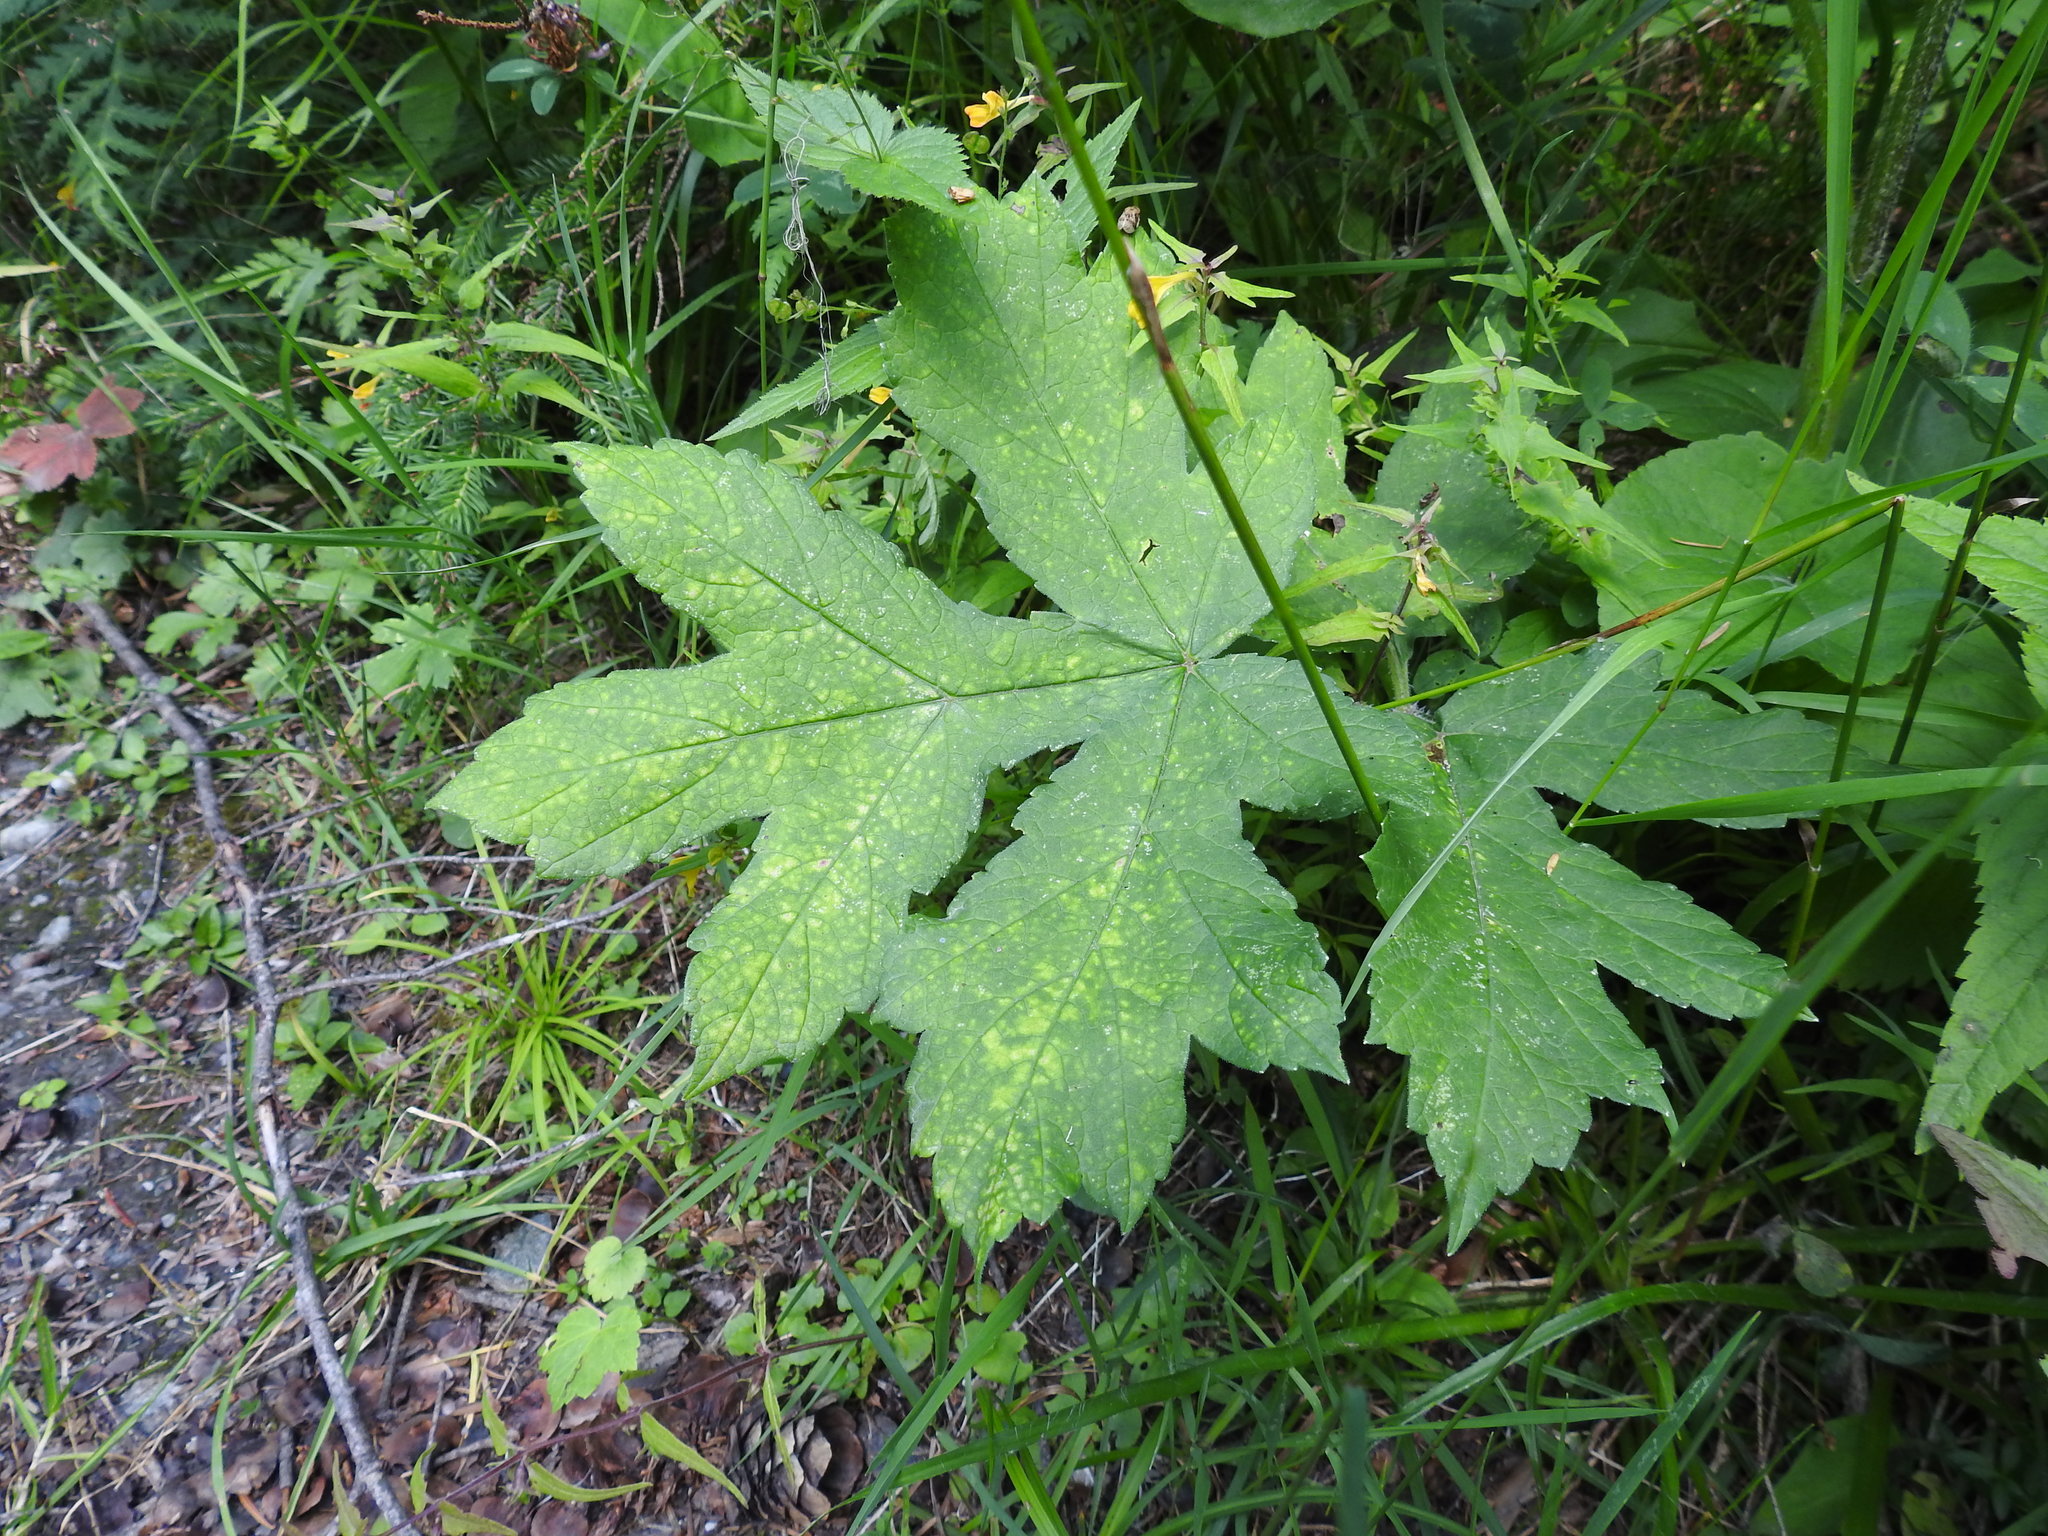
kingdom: Plantae
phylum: Tracheophyta
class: Magnoliopsida
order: Apiales
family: Apiaceae
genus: Heracleum
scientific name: Heracleum sphondylium
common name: Hogweed
